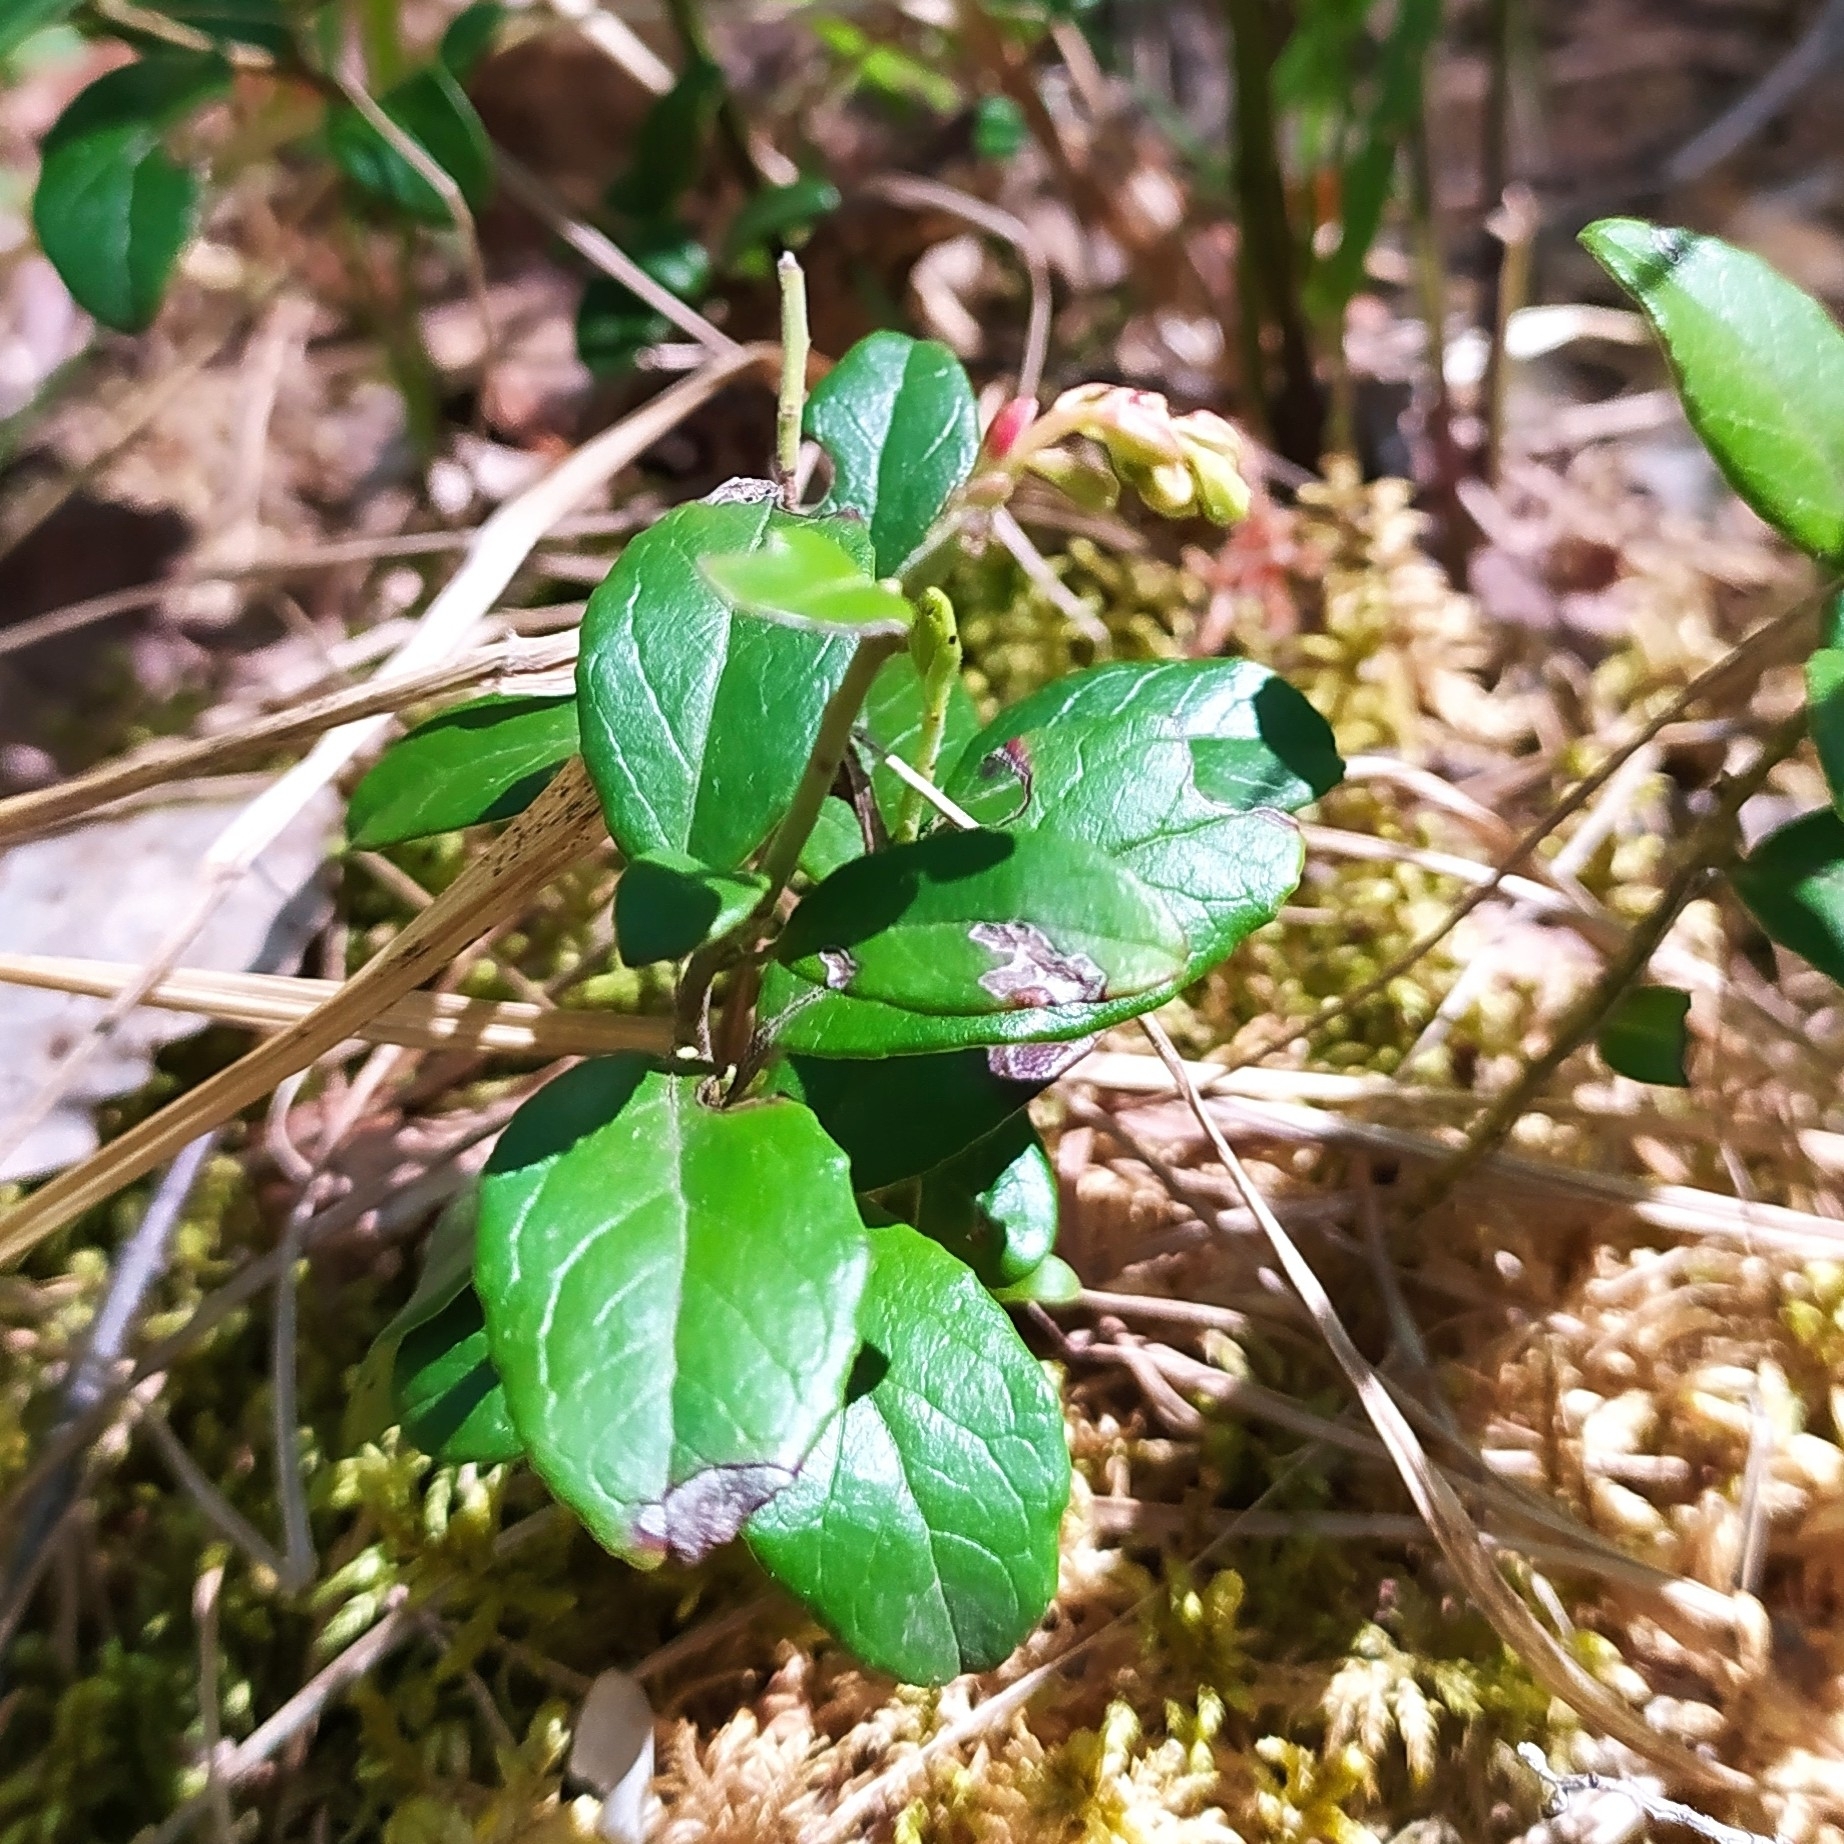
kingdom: Plantae
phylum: Tracheophyta
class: Magnoliopsida
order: Ericales
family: Ericaceae
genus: Vaccinium
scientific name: Vaccinium vitis-idaea
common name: Cowberry
